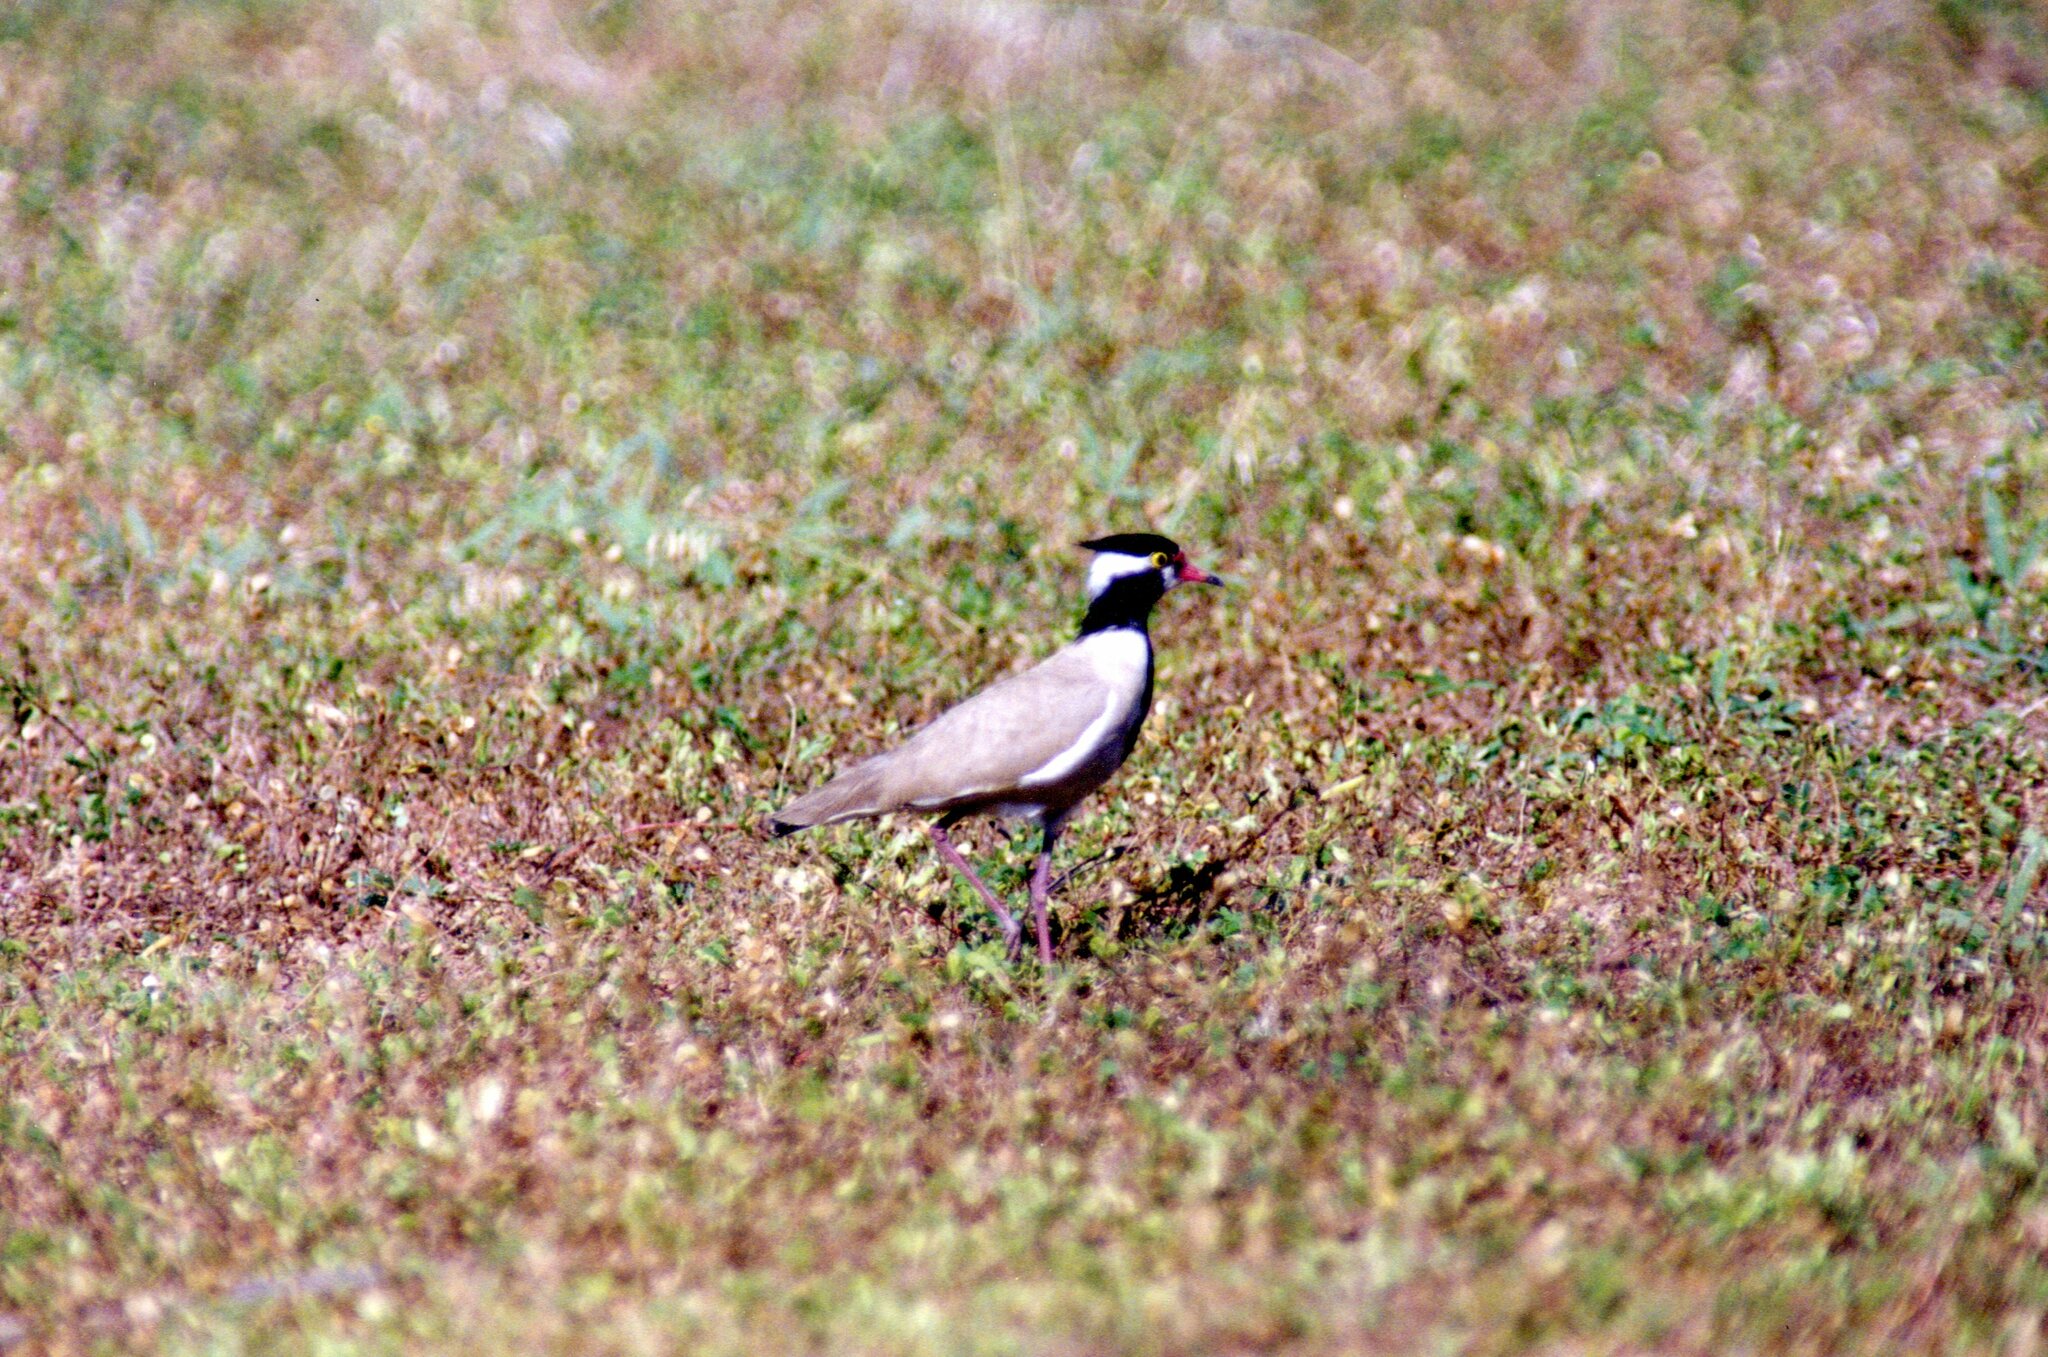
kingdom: Animalia
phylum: Chordata
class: Aves
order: Charadriiformes
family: Charadriidae
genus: Vanellus
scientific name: Vanellus tectus
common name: Black-headed lapwing
